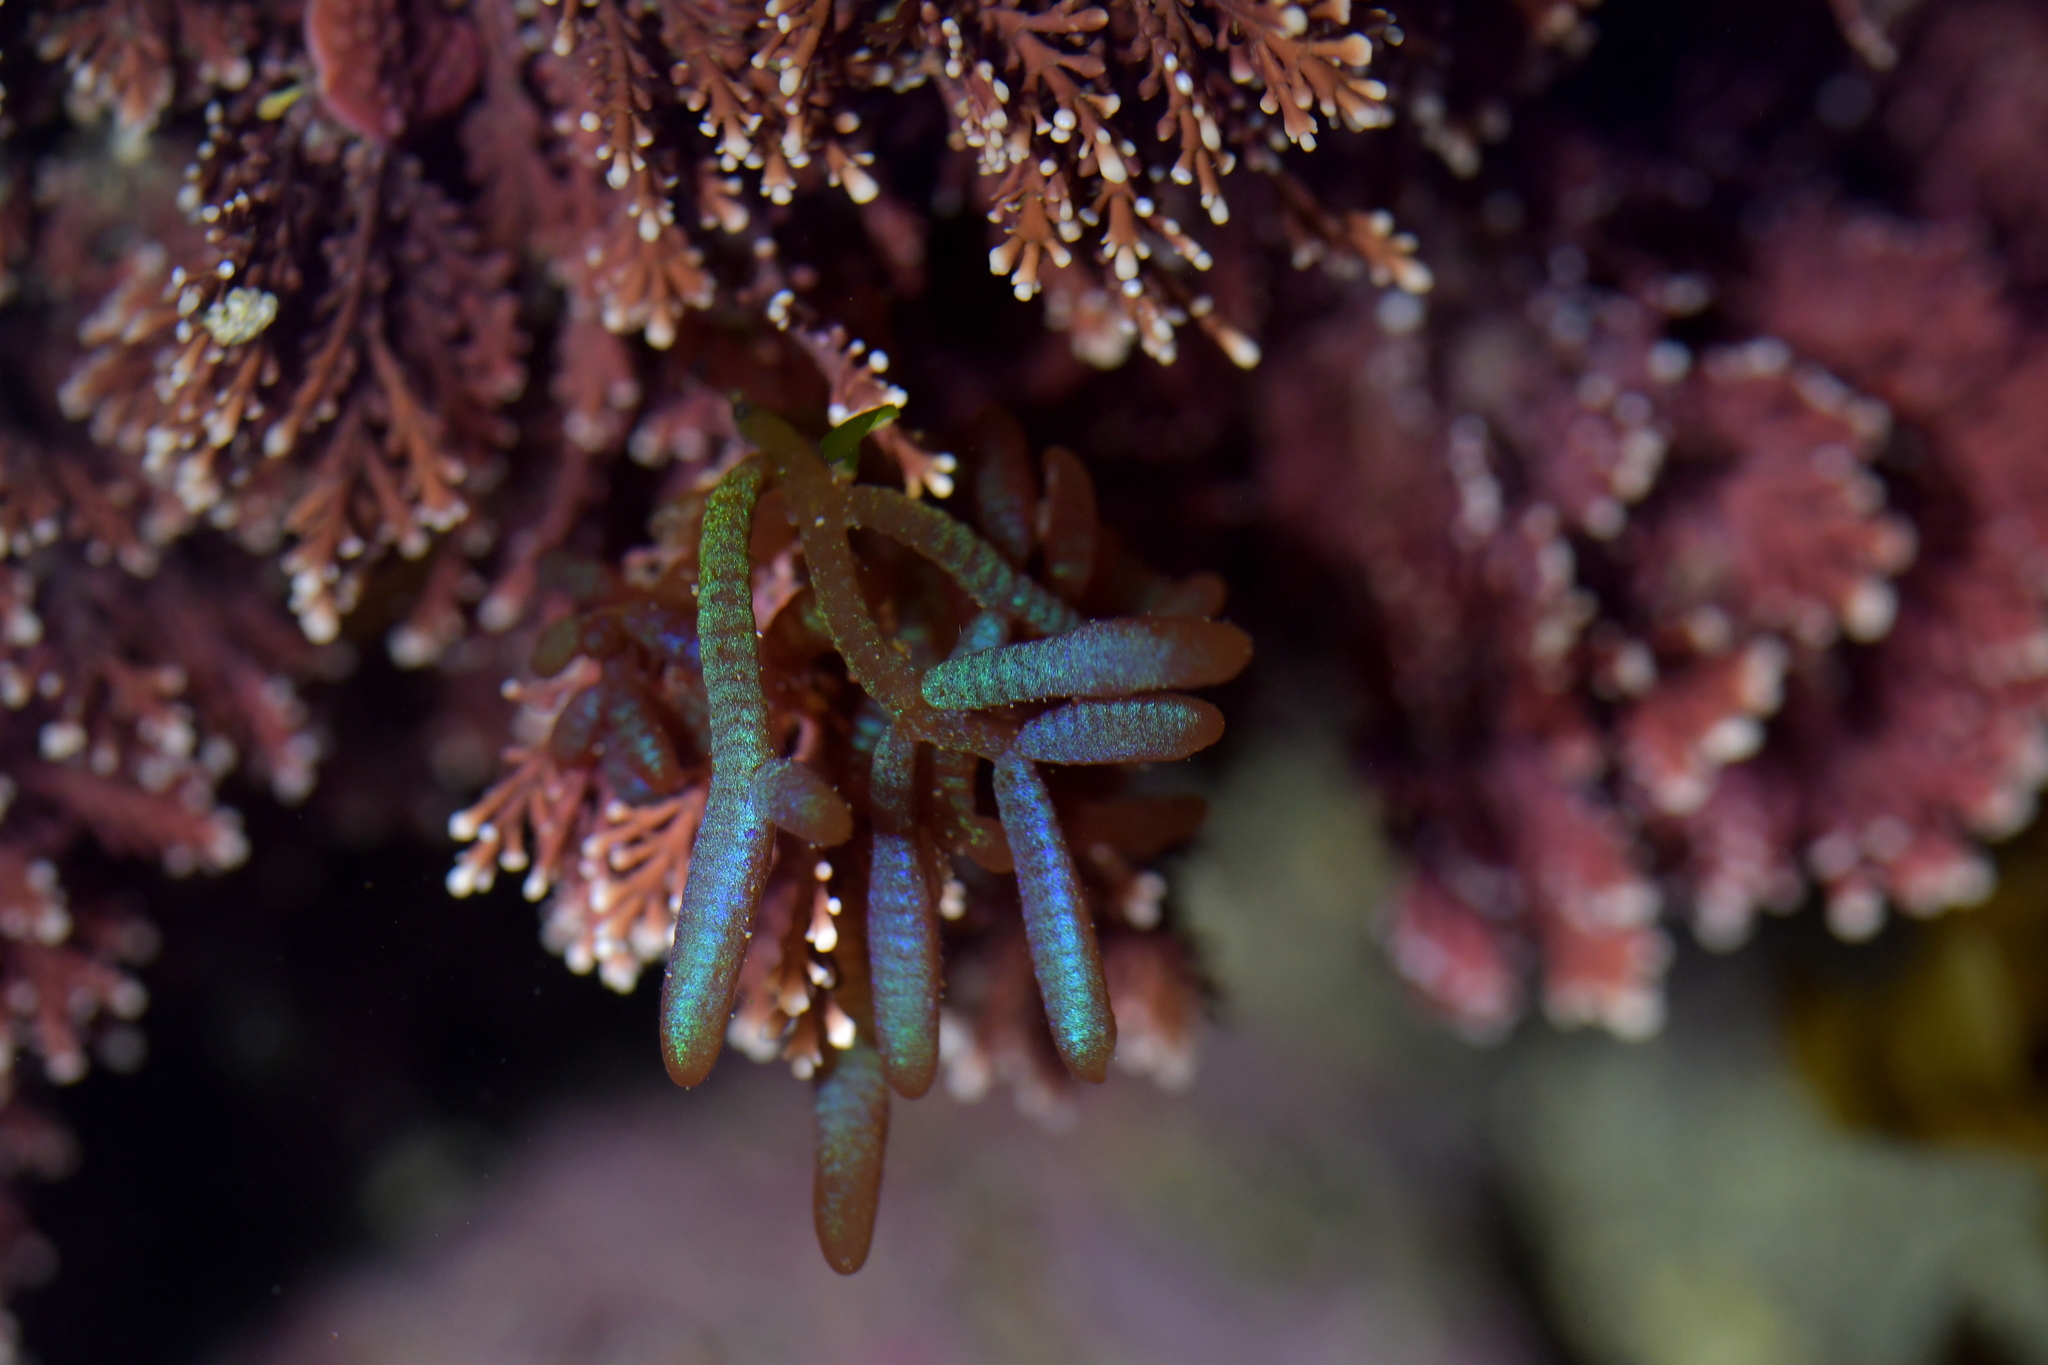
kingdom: Plantae
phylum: Rhodophyta
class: Florideophyceae
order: Rhodymeniales
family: Champiaceae
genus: Champia
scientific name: Champia laingii
